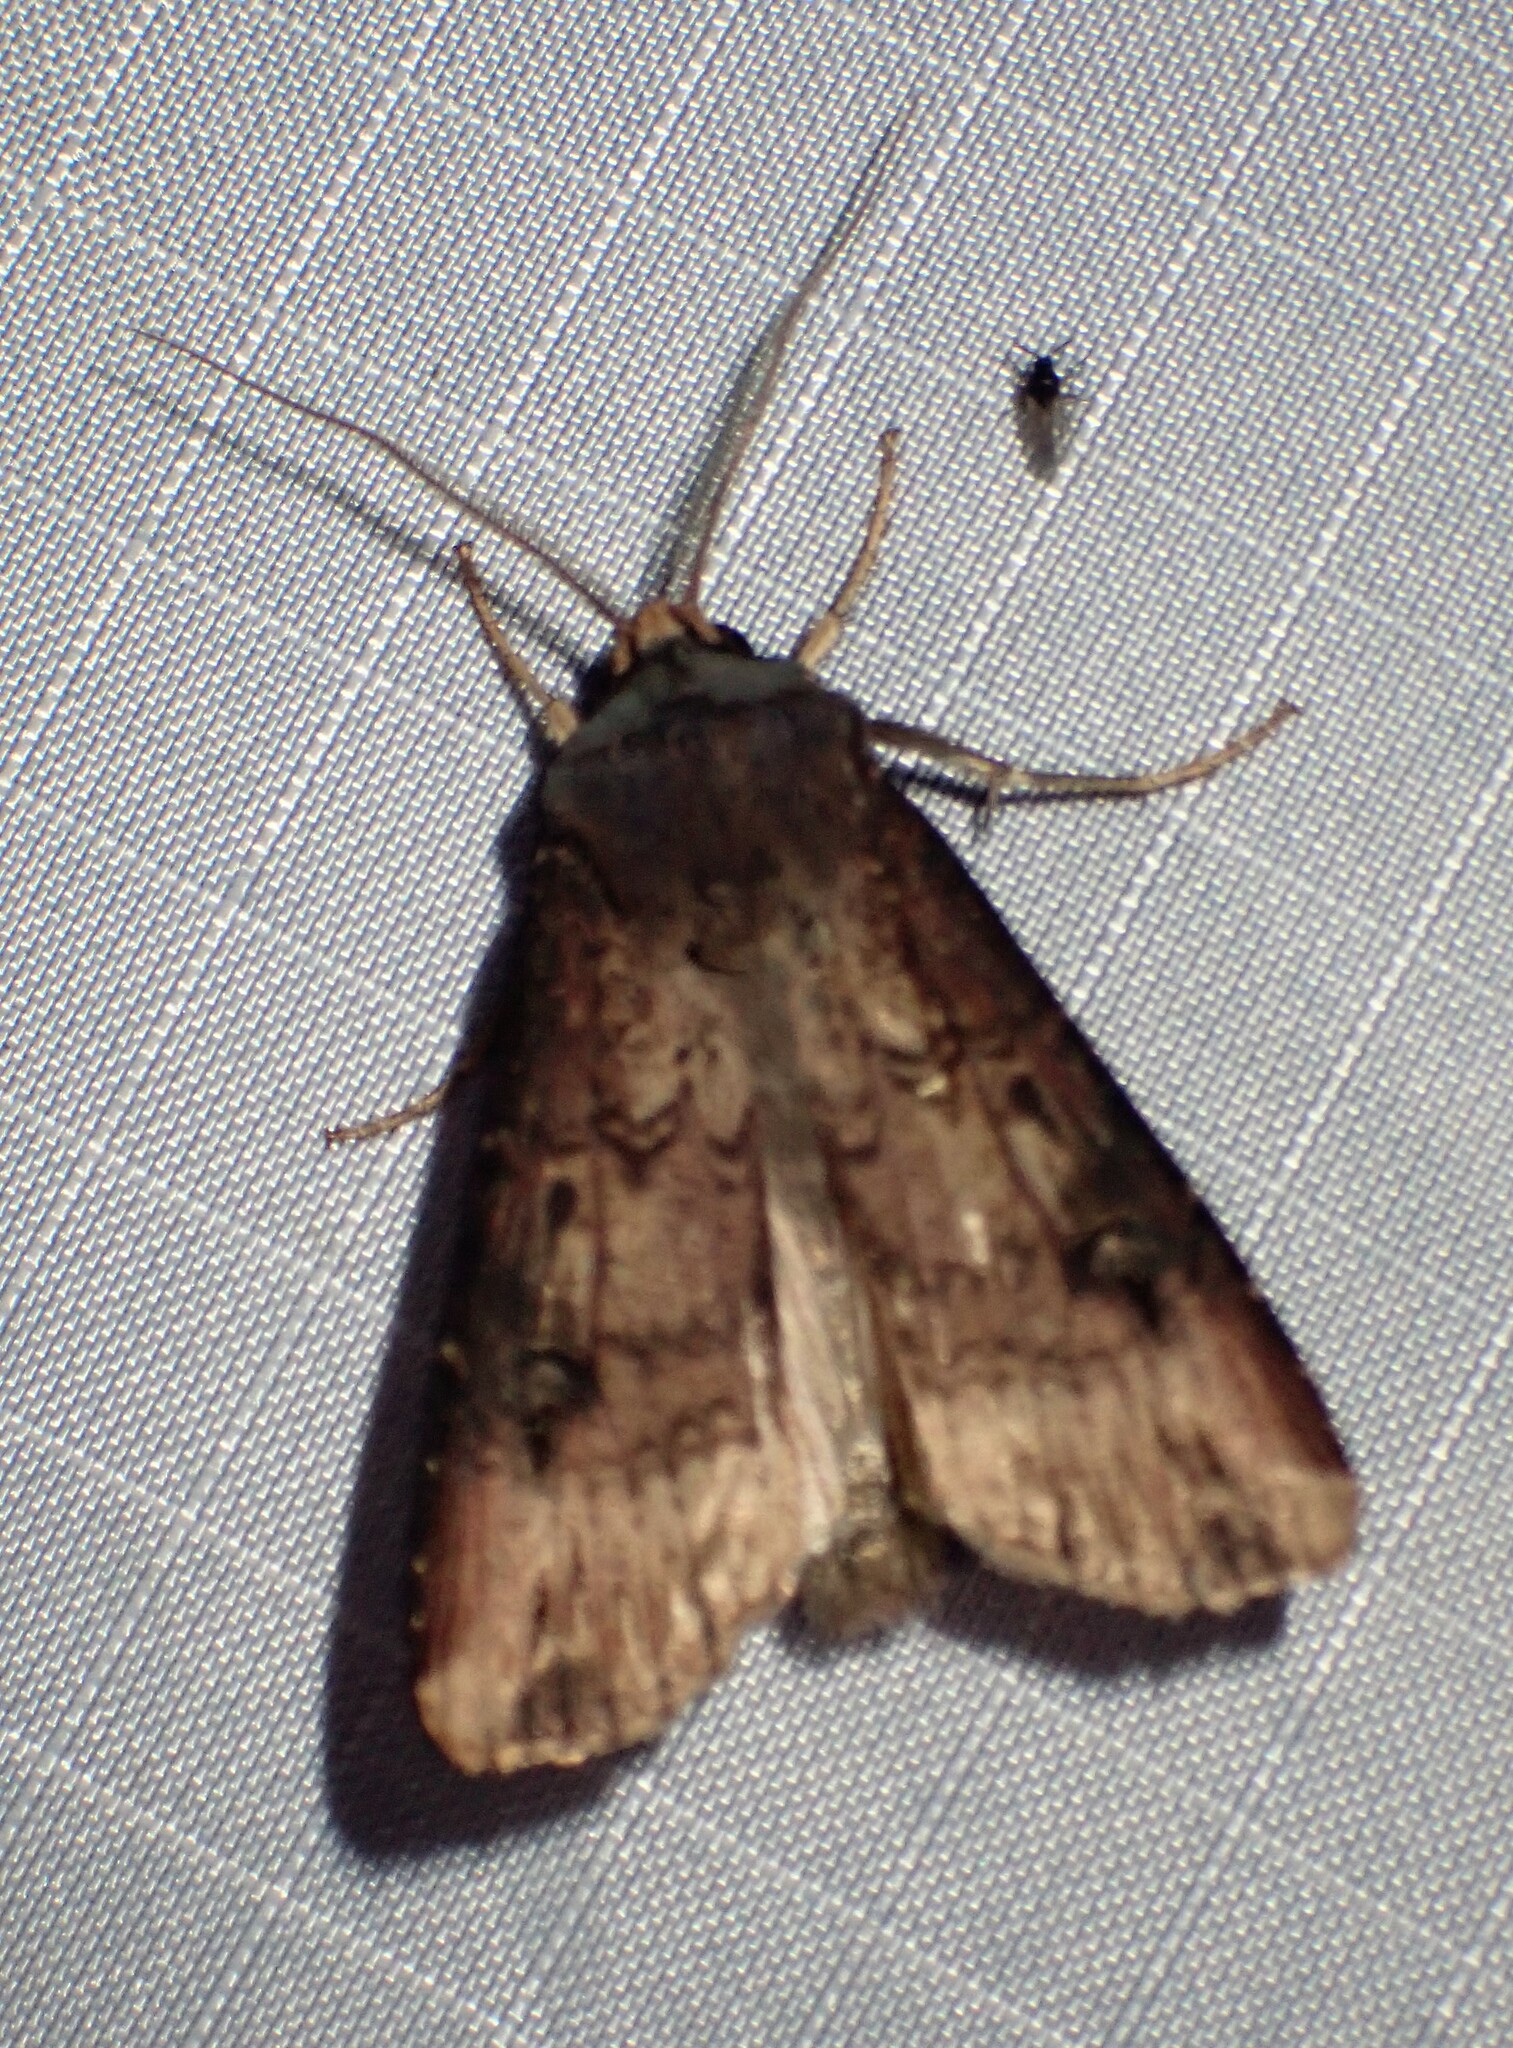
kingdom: Animalia
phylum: Arthropoda
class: Insecta
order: Lepidoptera
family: Noctuidae
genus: Agrotis
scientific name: Agrotis ipsilon
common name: Dark sword-grass
